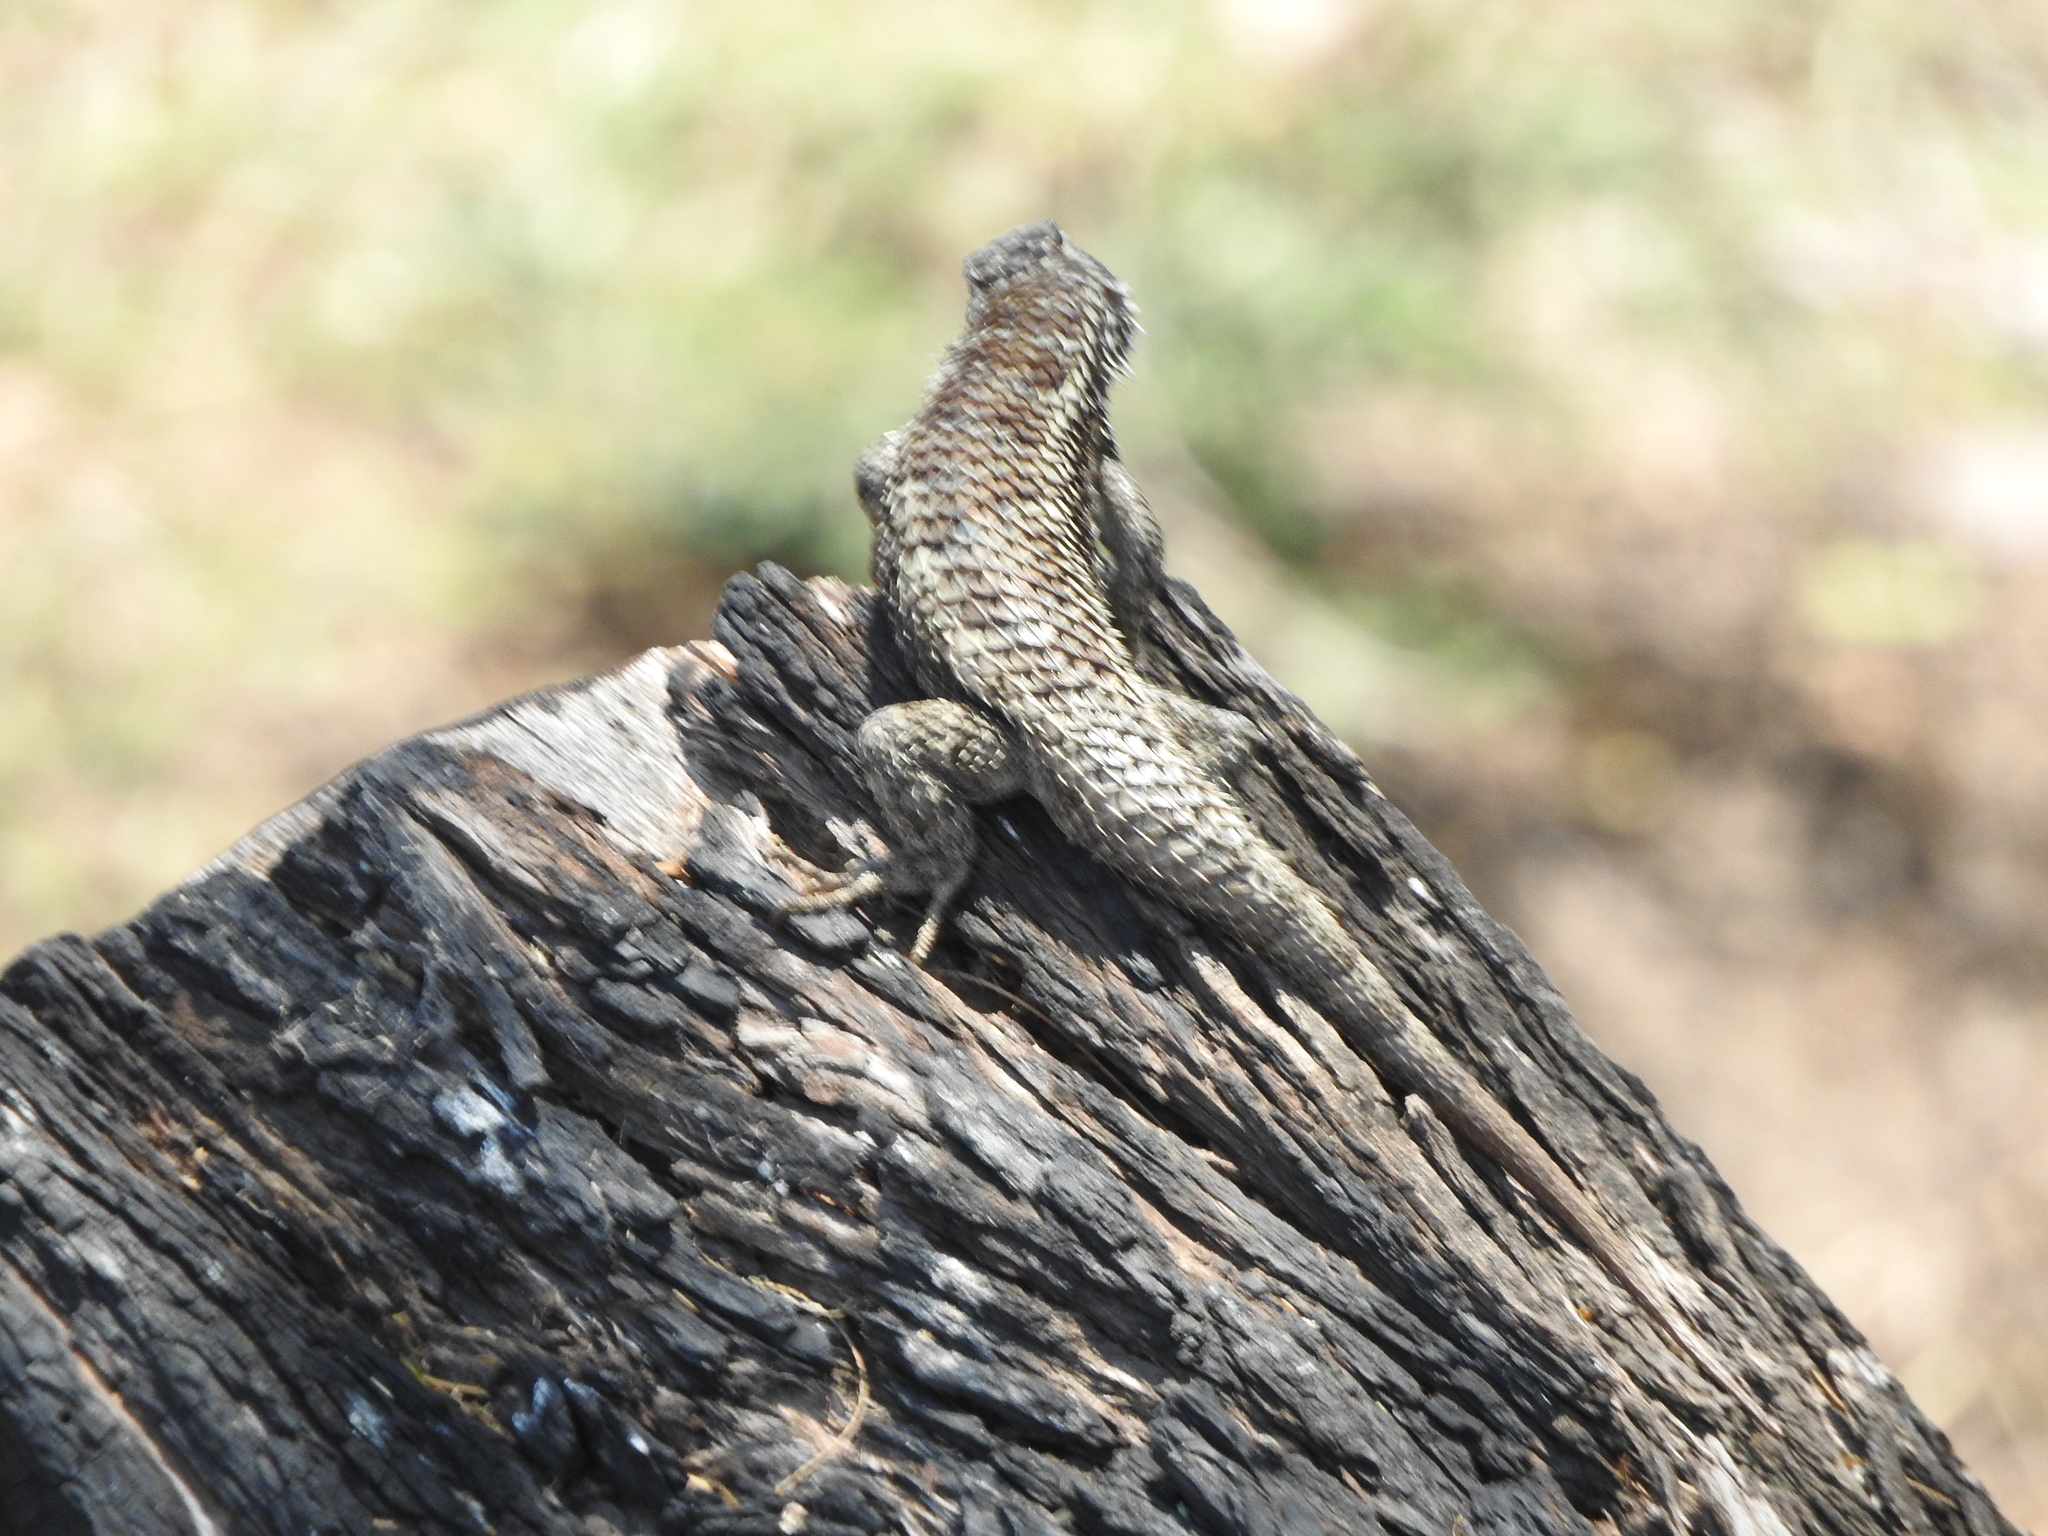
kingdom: Animalia
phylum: Chordata
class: Squamata
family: Phrynosomatidae
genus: Sceloporus
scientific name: Sceloporus spinosus
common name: Blue-spotted spiny lizard [caeruleopunctatus]
